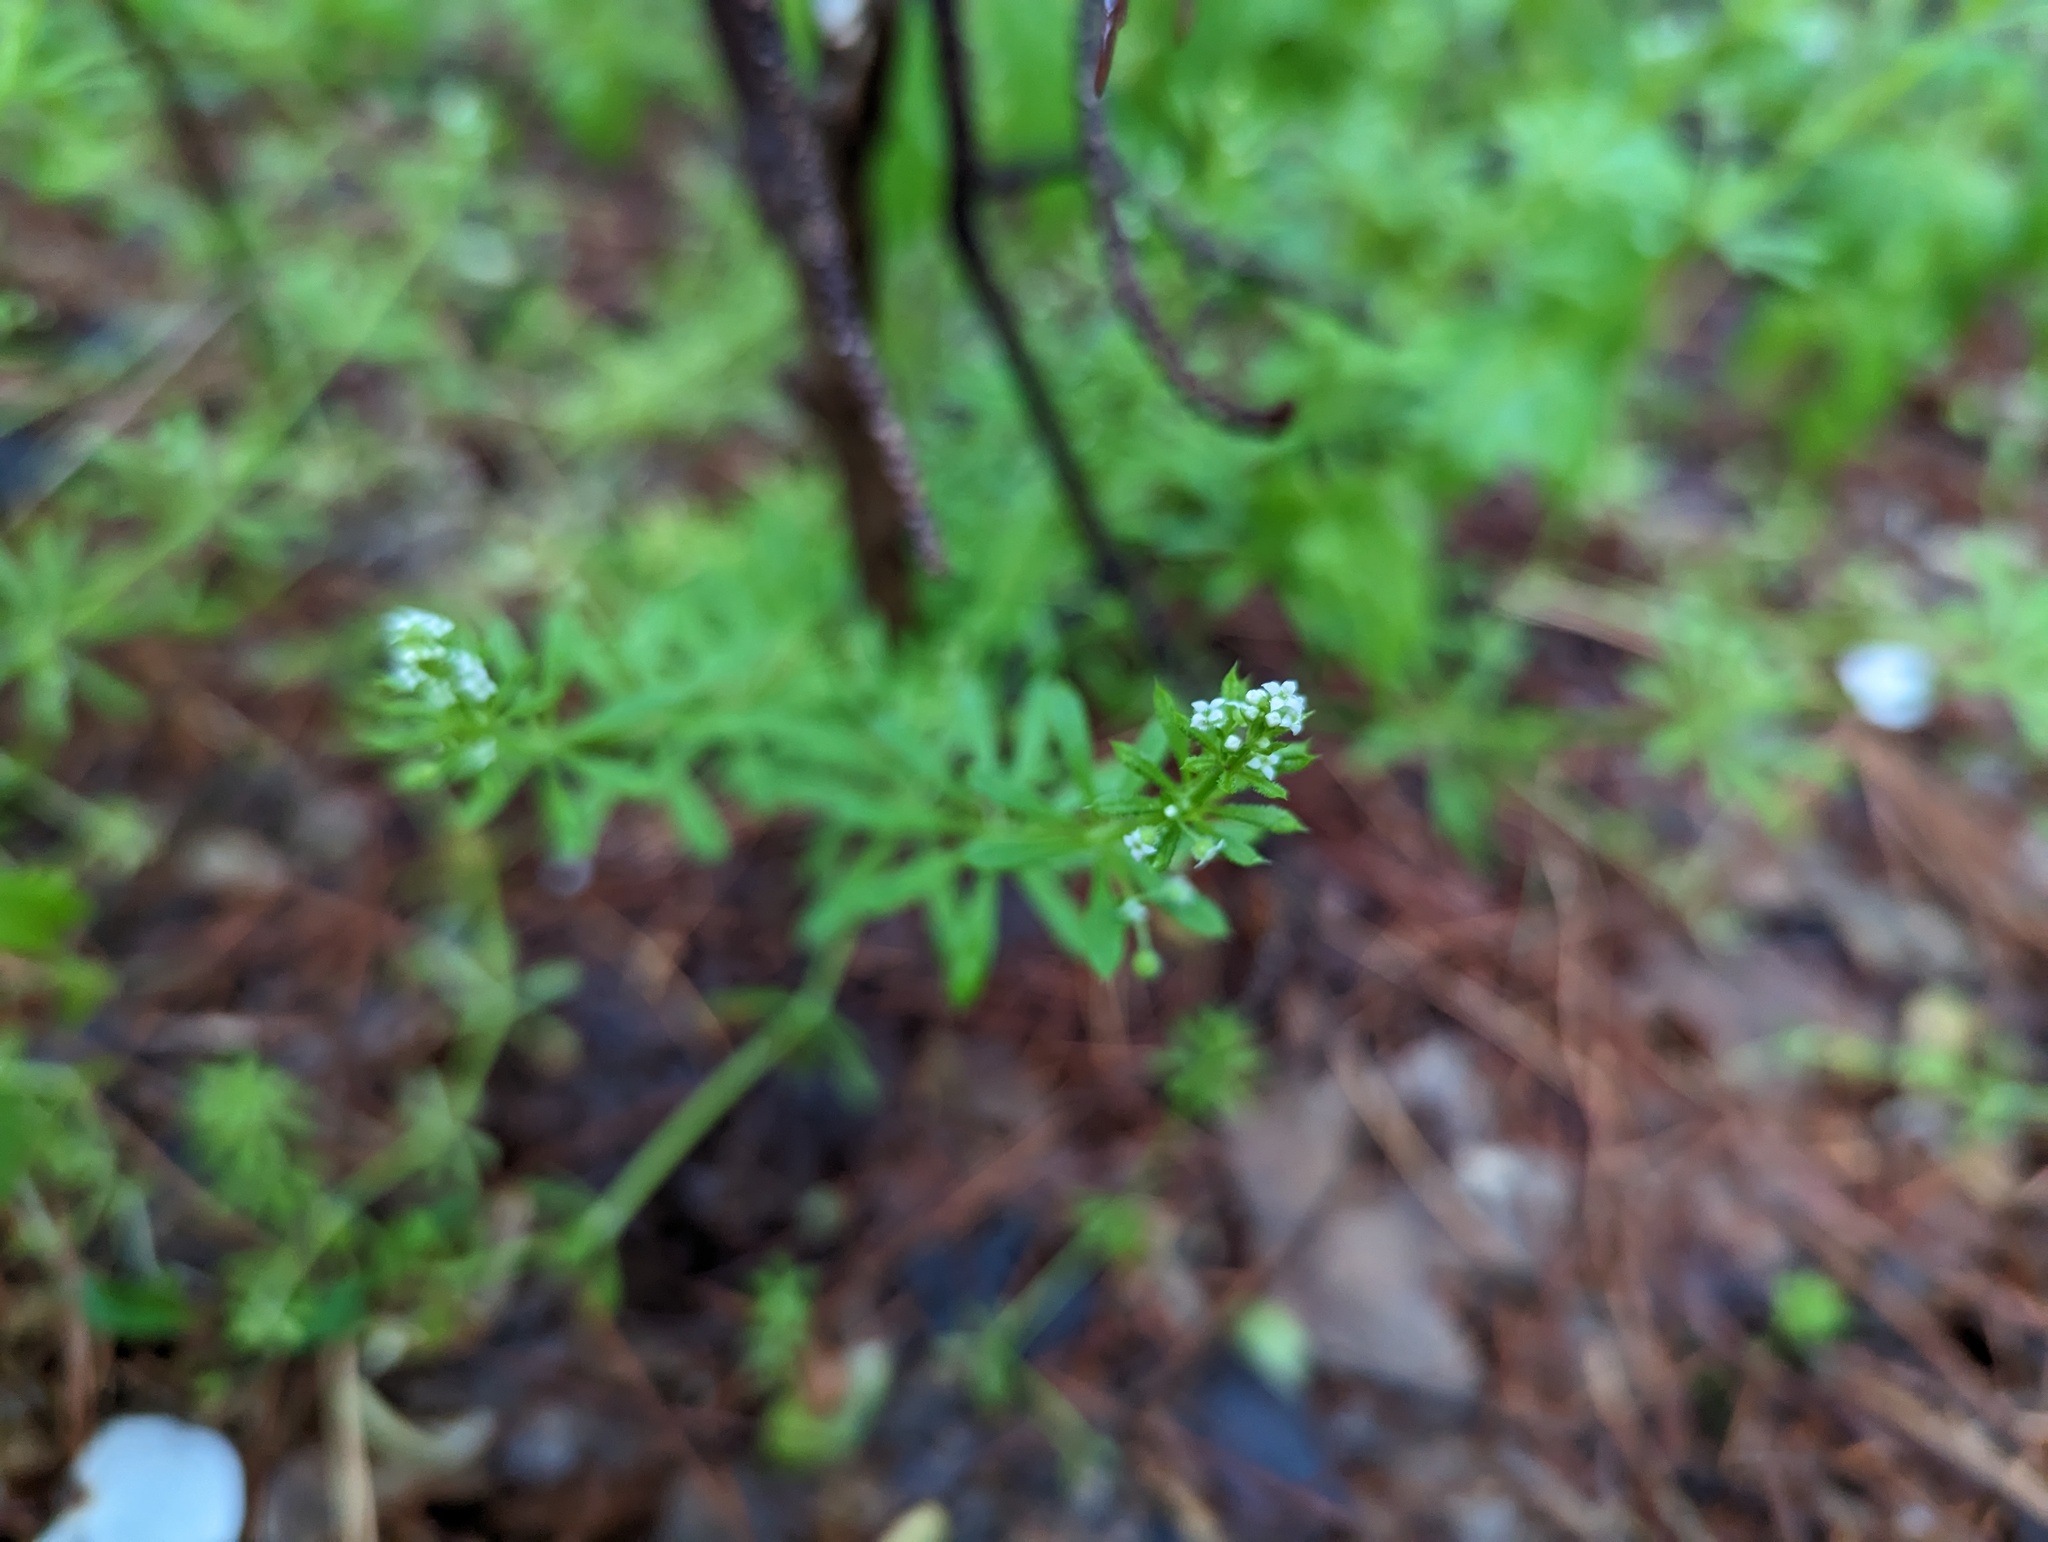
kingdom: Plantae
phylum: Tracheophyta
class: Magnoliopsida
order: Gentianales
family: Rubiaceae
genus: Galium
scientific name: Galium aparine
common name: Cleavers
